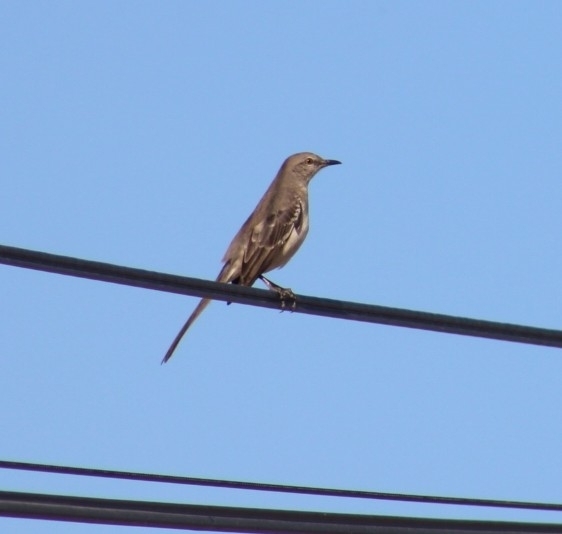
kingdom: Animalia
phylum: Chordata
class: Aves
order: Passeriformes
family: Mimidae
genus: Mimus
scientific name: Mimus polyglottos
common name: Northern mockingbird
